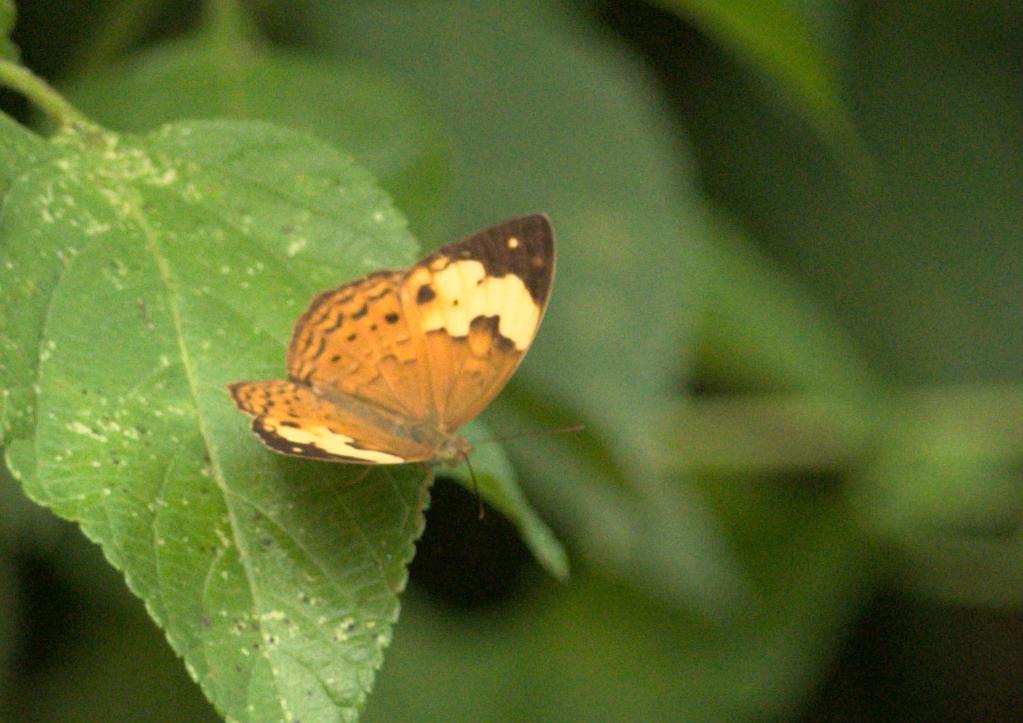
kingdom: Animalia
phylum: Arthropoda
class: Insecta
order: Lepidoptera
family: Nymphalidae
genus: Cupha
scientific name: Cupha erymanthis
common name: Rustic
